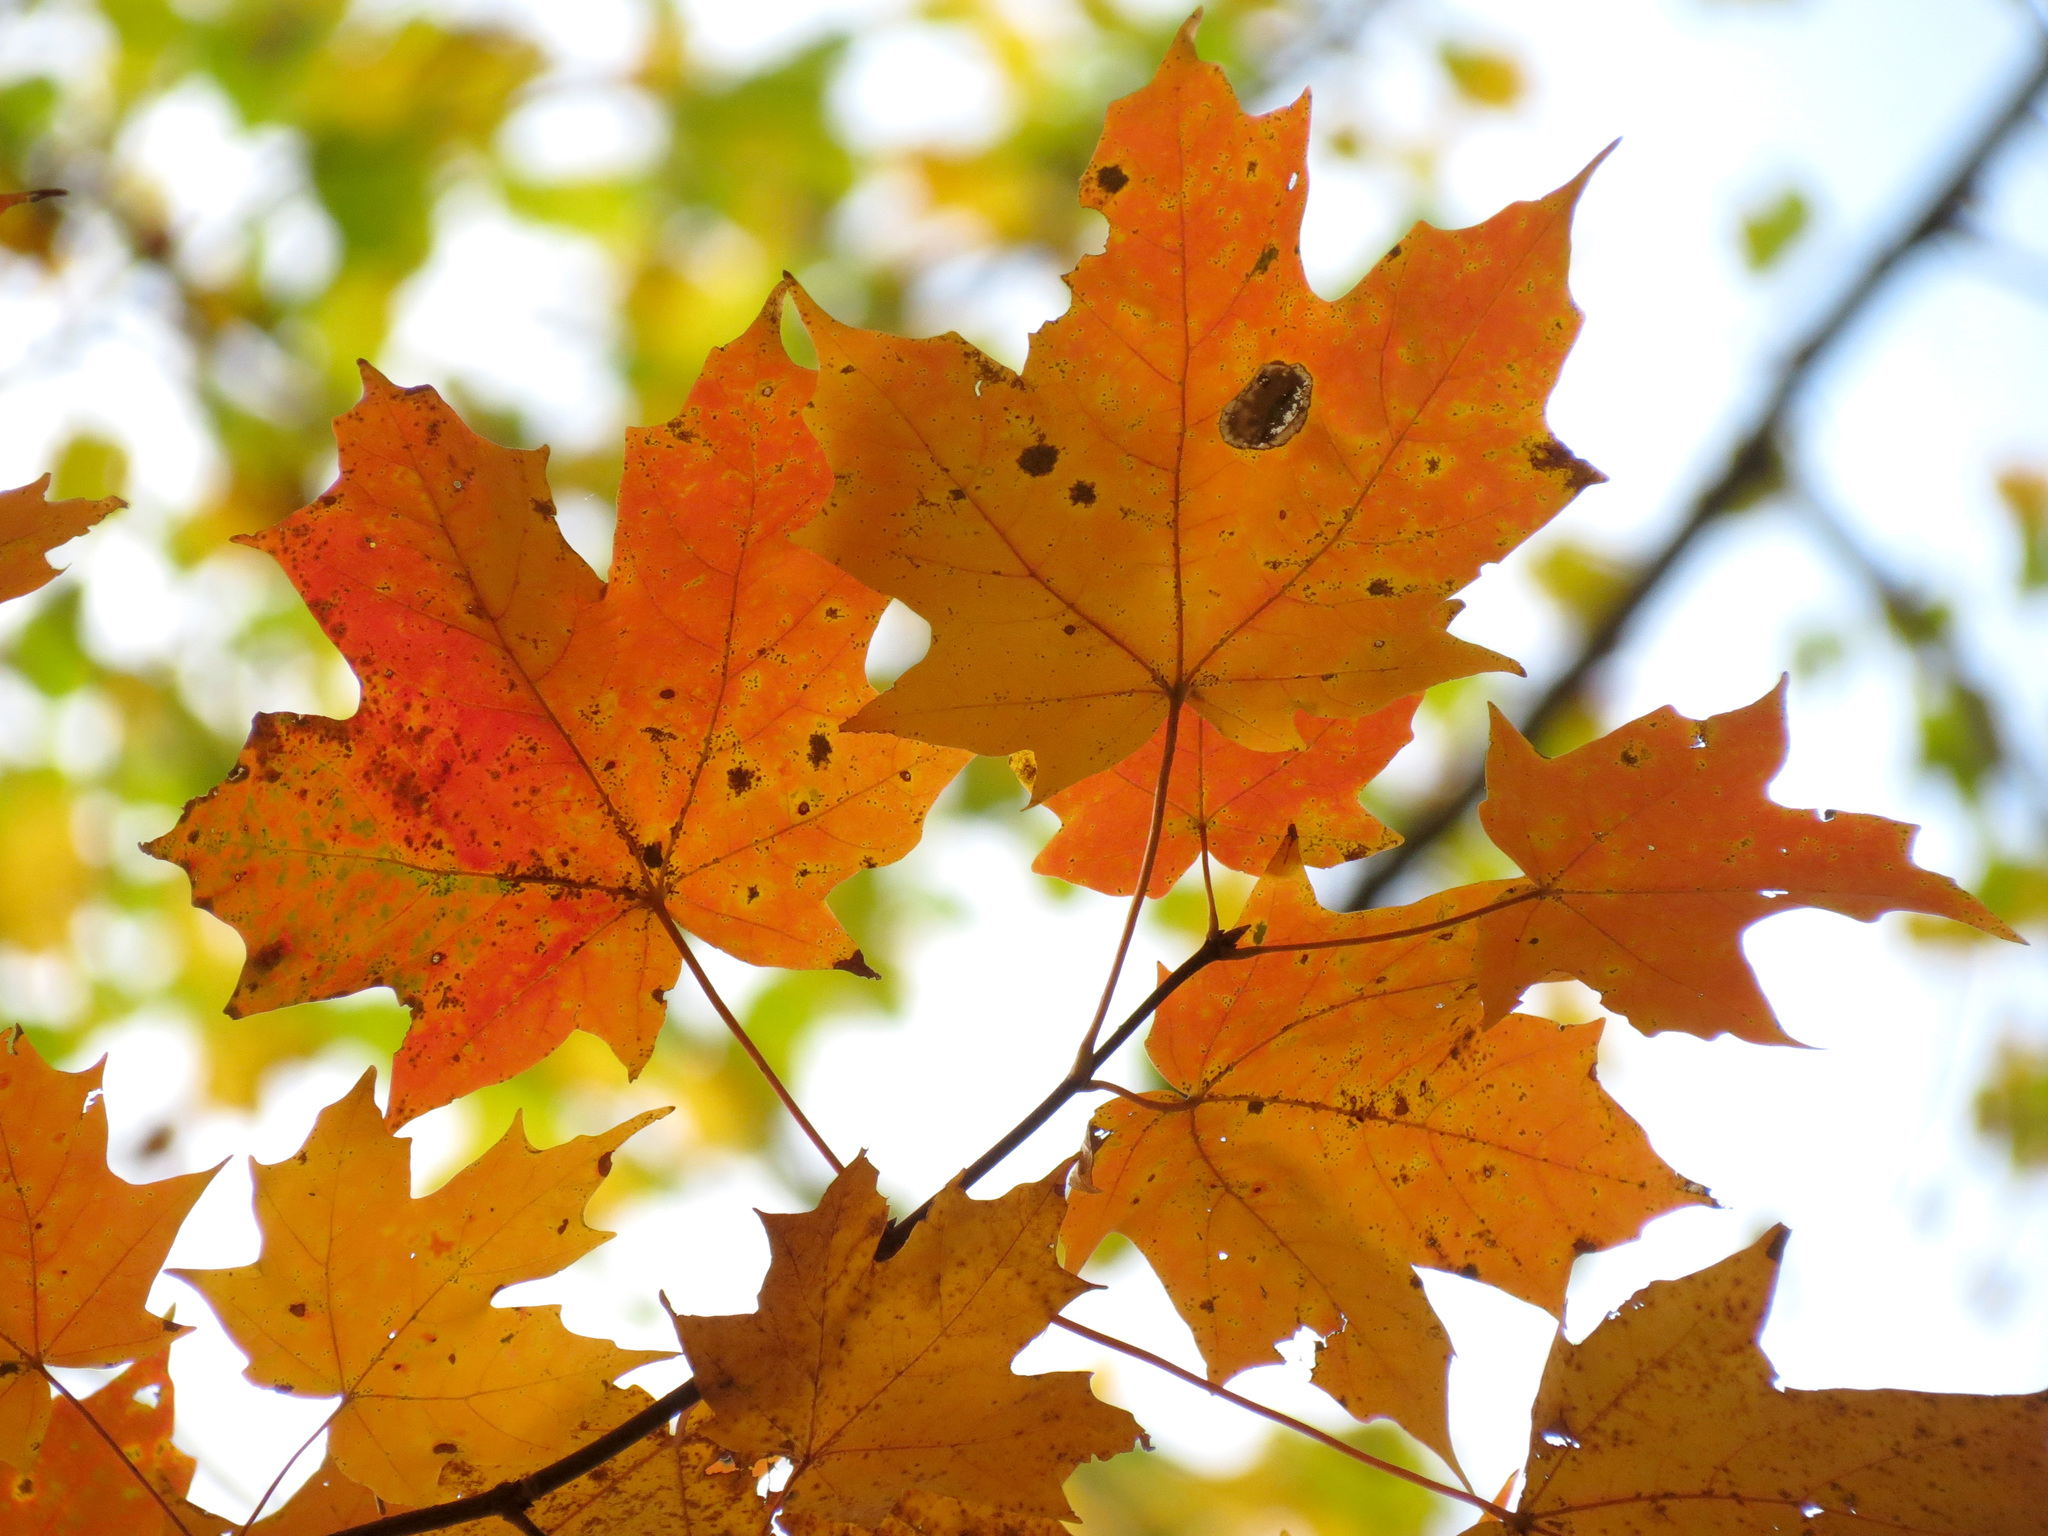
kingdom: Plantae
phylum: Tracheophyta
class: Magnoliopsida
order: Sapindales
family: Sapindaceae
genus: Acer
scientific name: Acer saccharum
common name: Sugar maple
